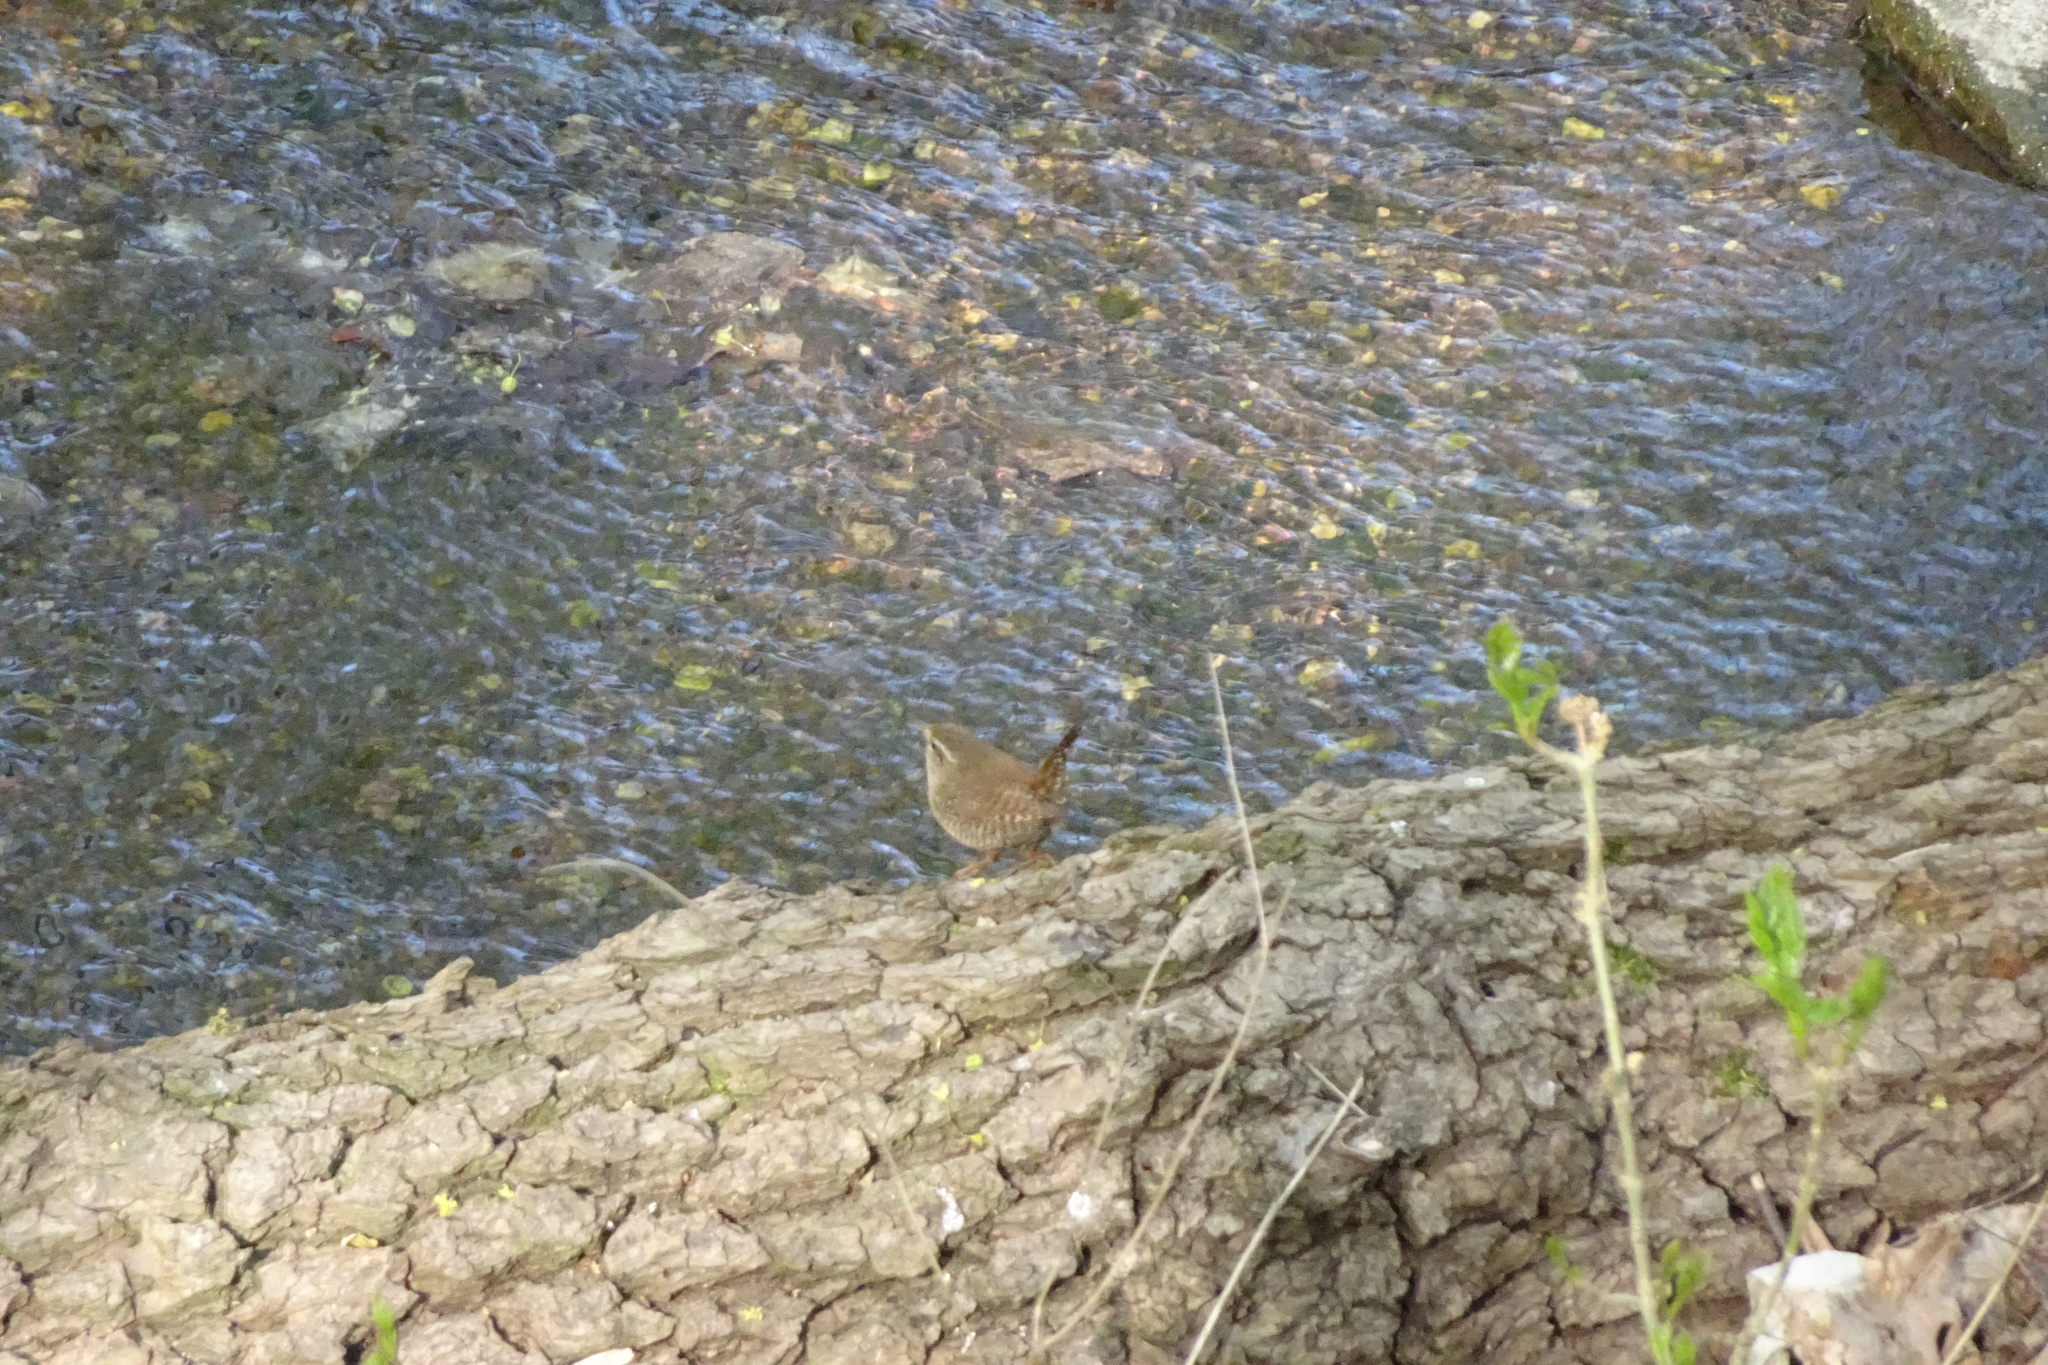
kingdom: Animalia
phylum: Chordata
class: Aves
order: Passeriformes
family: Troglodytidae
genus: Troglodytes
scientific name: Troglodytes troglodytes
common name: Eurasian wren
